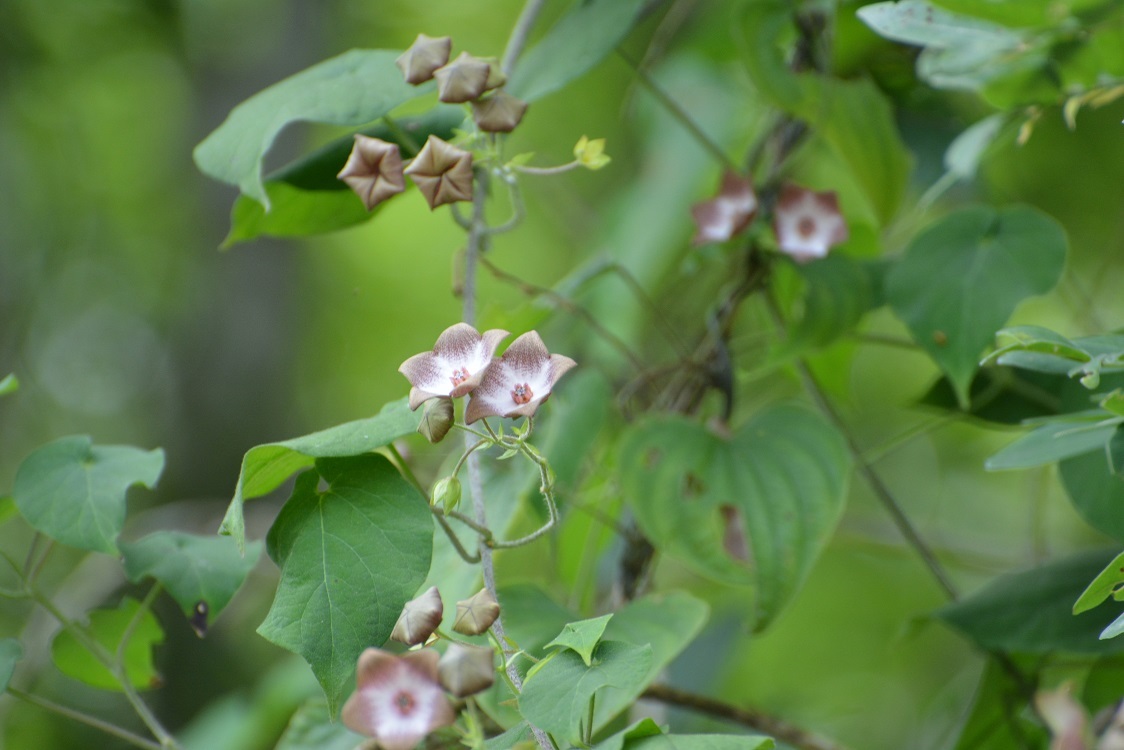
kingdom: Plantae
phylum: Tracheophyta
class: Magnoliopsida
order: Gentianales
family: Apocynaceae
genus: Polystemma
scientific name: Polystemma guatemalense
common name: Arborescente rattan
